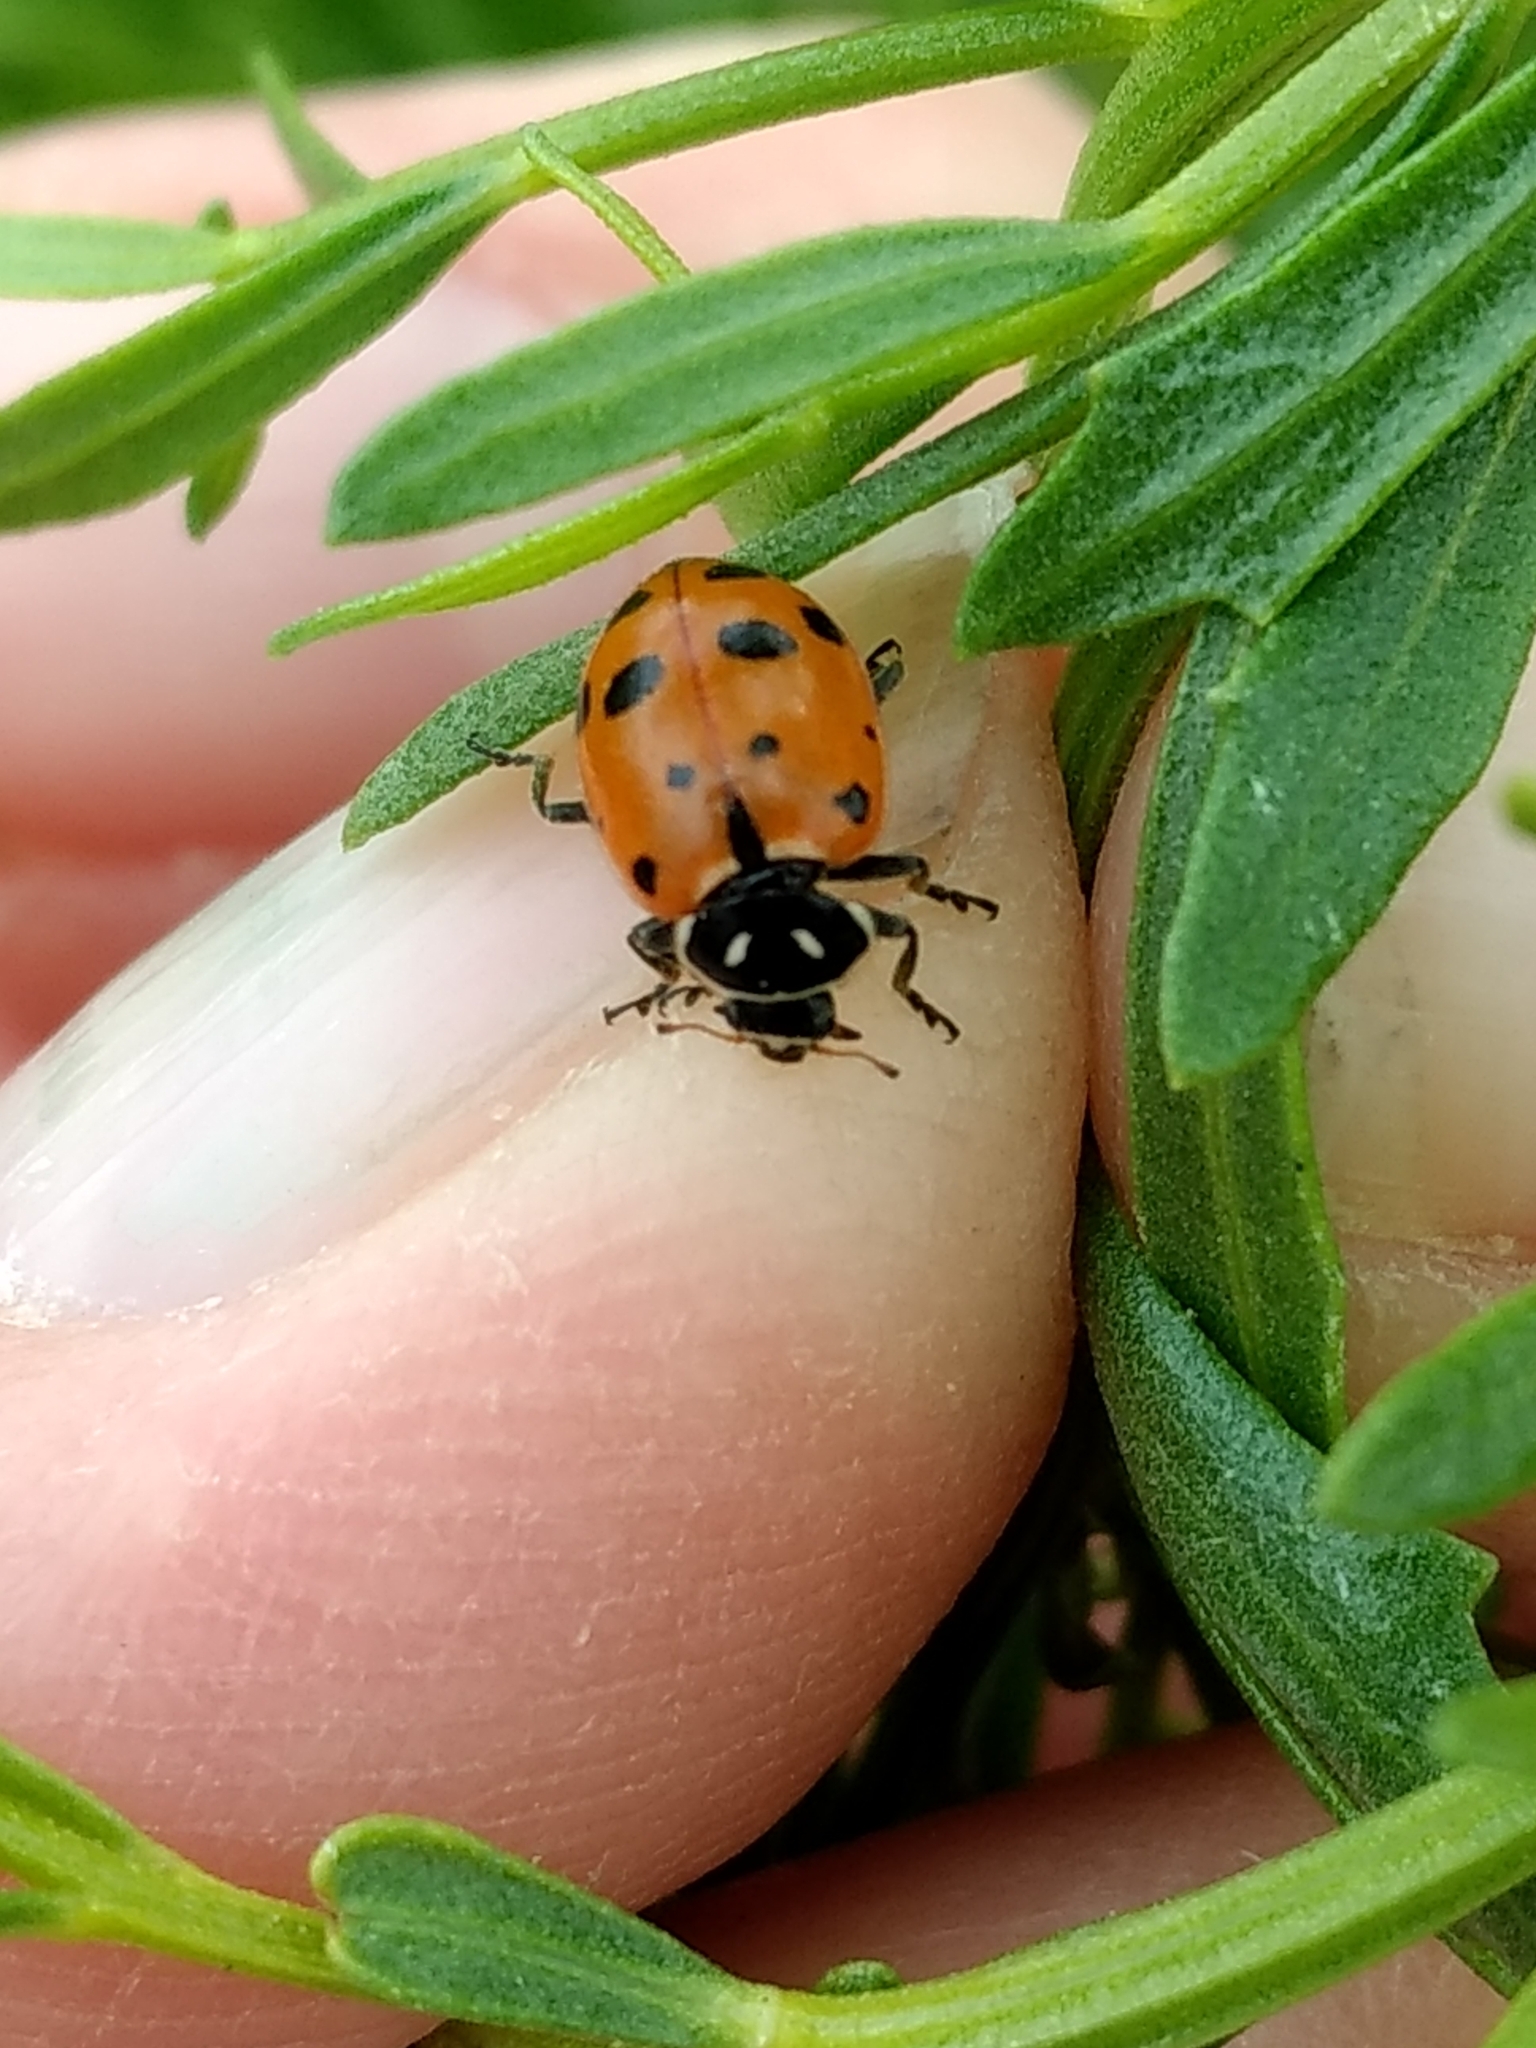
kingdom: Animalia
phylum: Arthropoda
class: Insecta
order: Coleoptera
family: Coccinellidae
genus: Hippodamia
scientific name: Hippodamia convergens
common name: Convergent lady beetle
